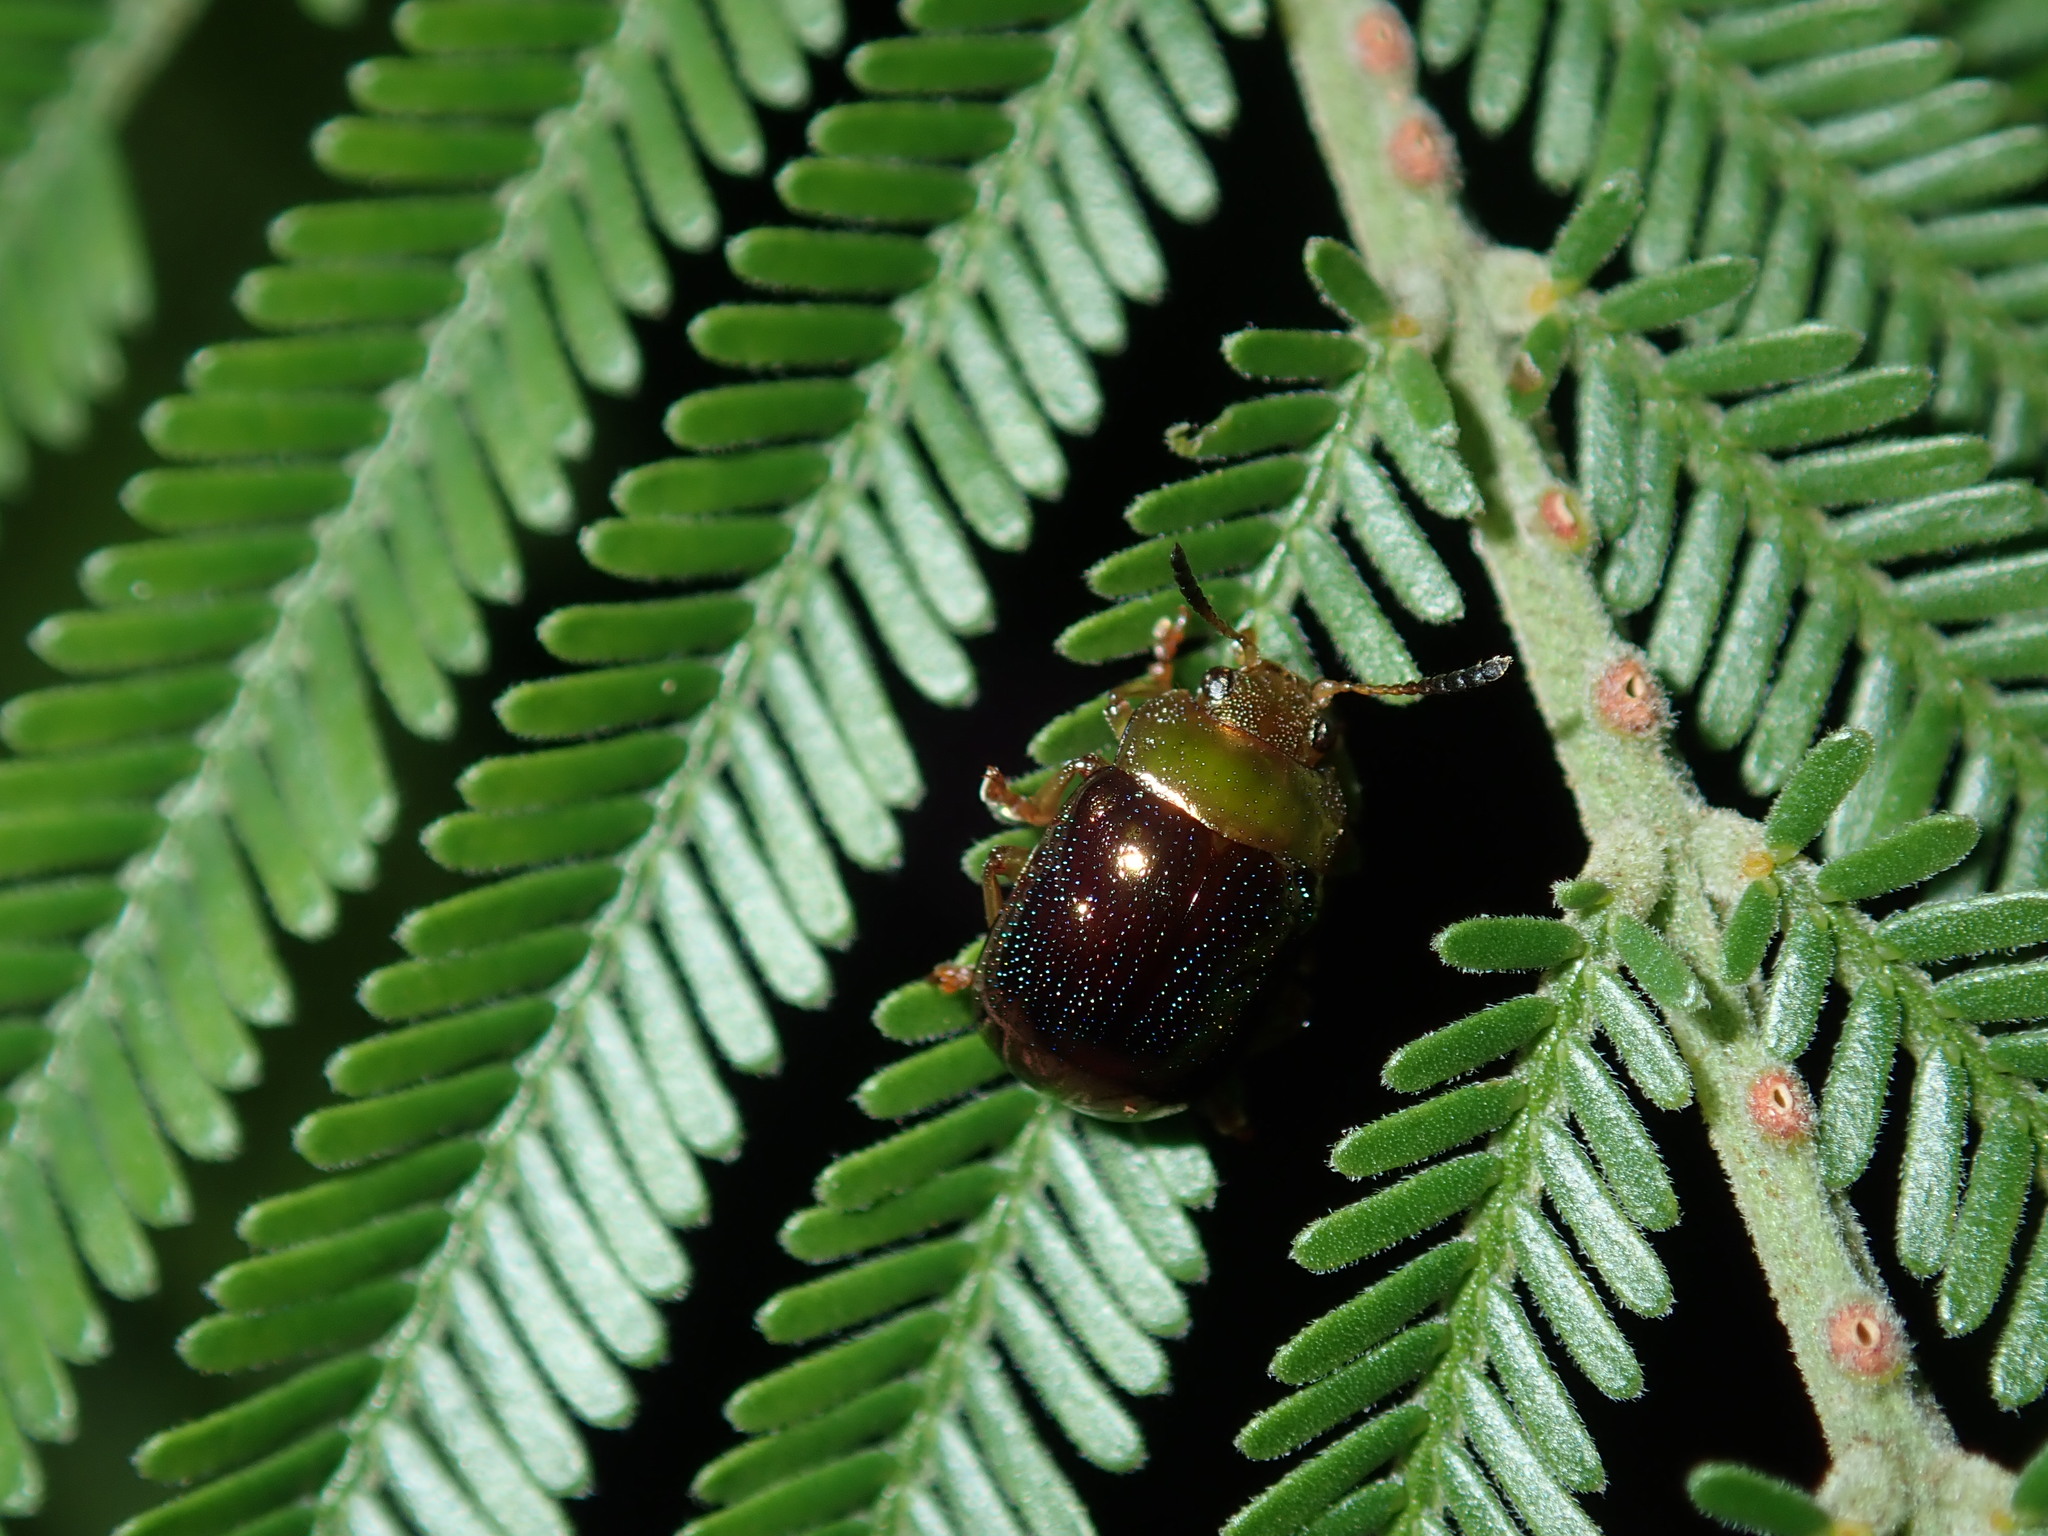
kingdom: Animalia
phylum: Arthropoda
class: Insecta
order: Coleoptera
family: Chrysomelidae
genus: Calomela
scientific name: Calomela
